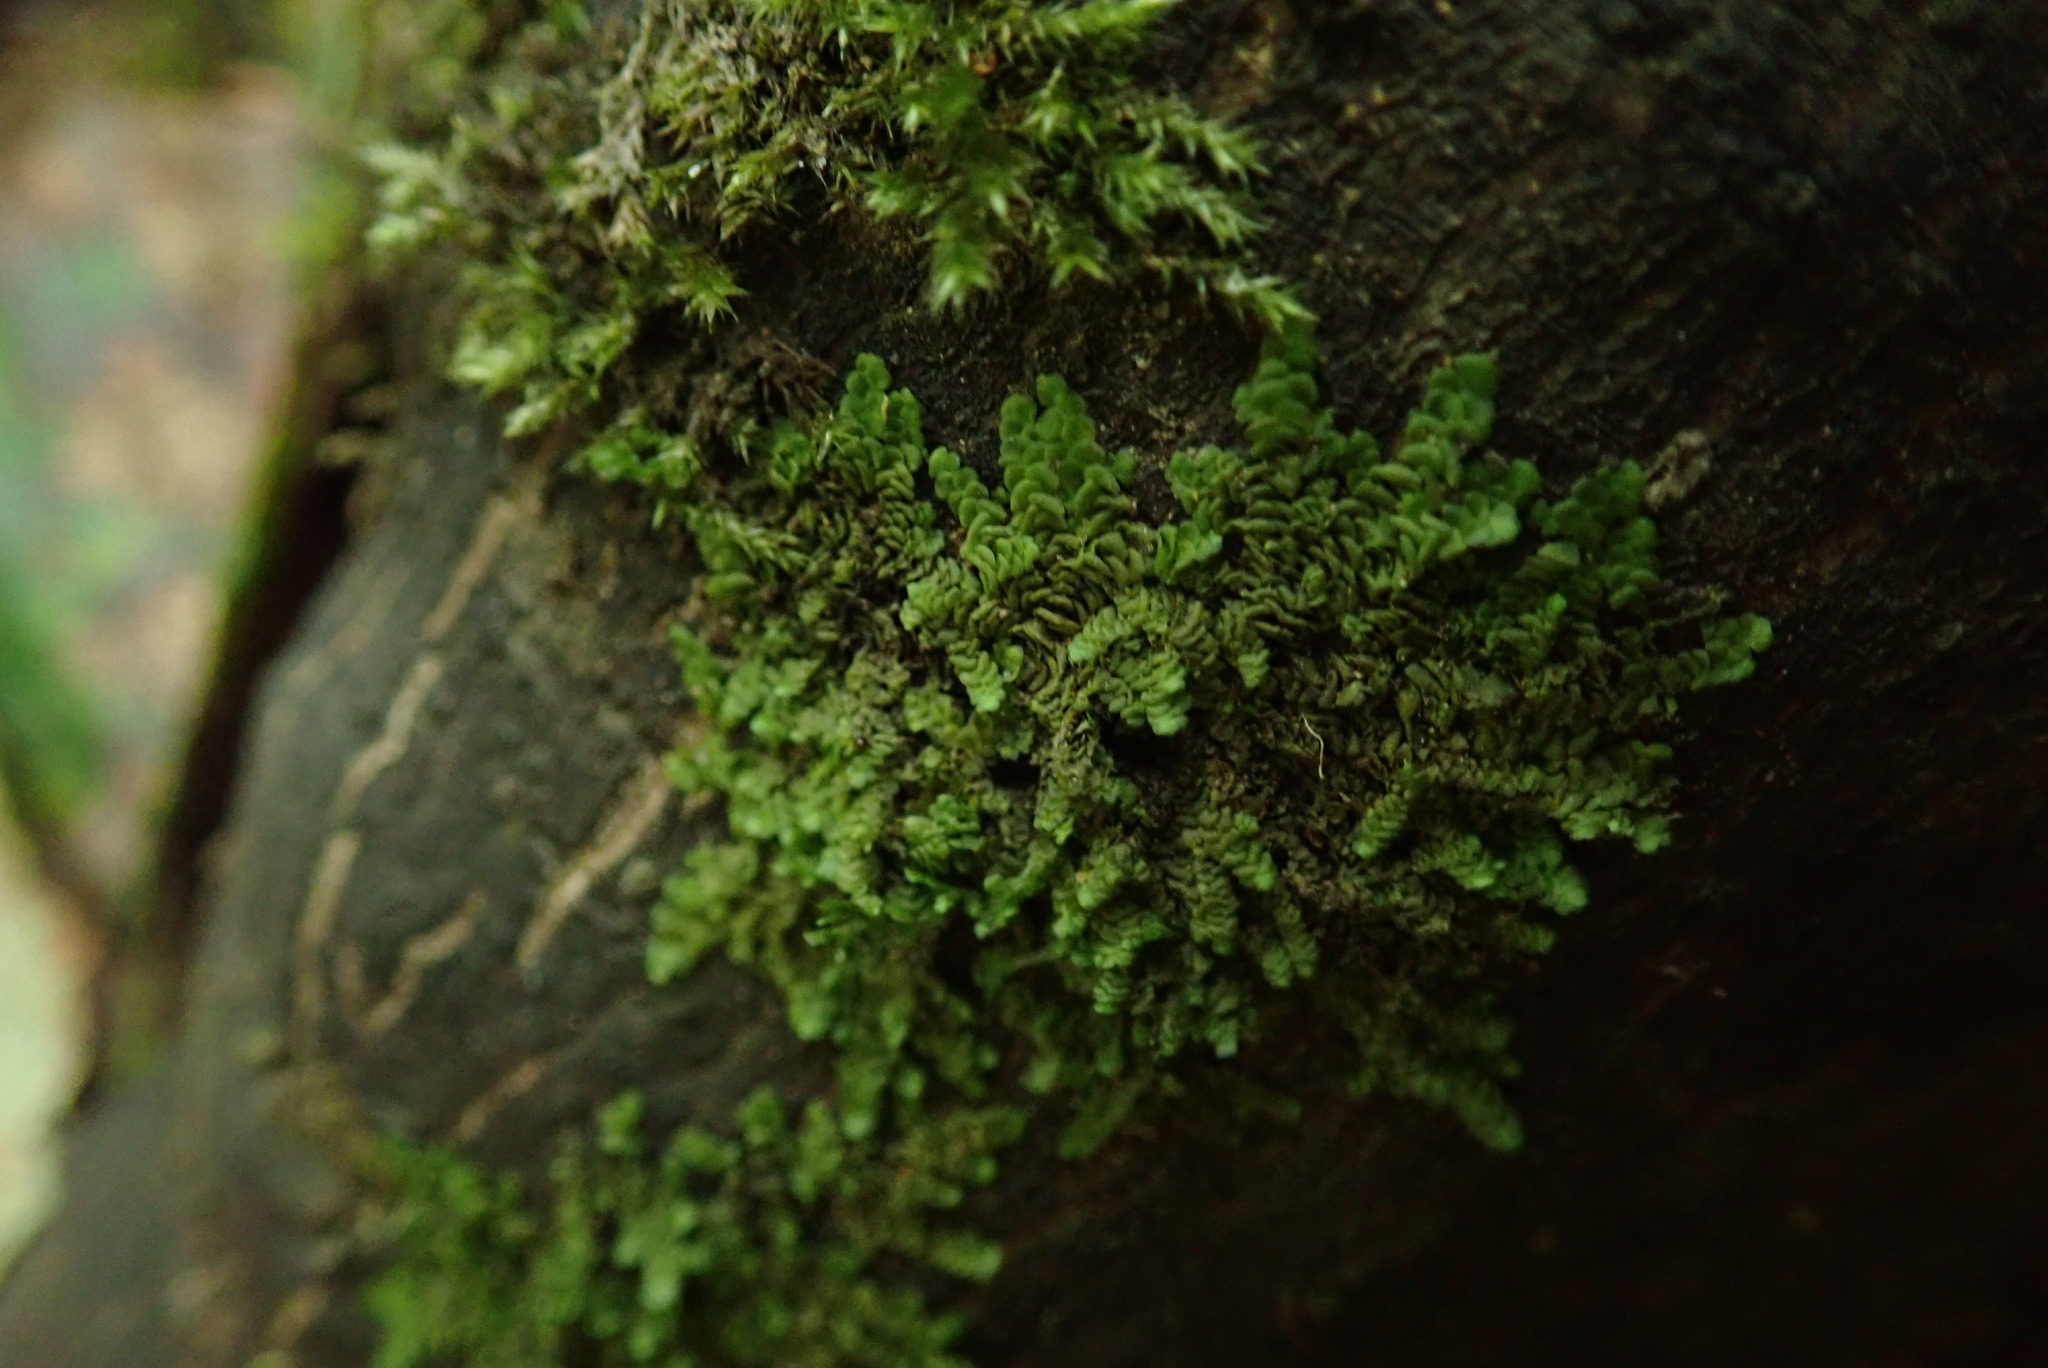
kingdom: Plantae
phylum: Marchantiophyta
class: Jungermanniopsida
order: Porellales
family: Radulaceae
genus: Radula
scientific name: Radula complanata
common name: Flat-leaved scalewort
